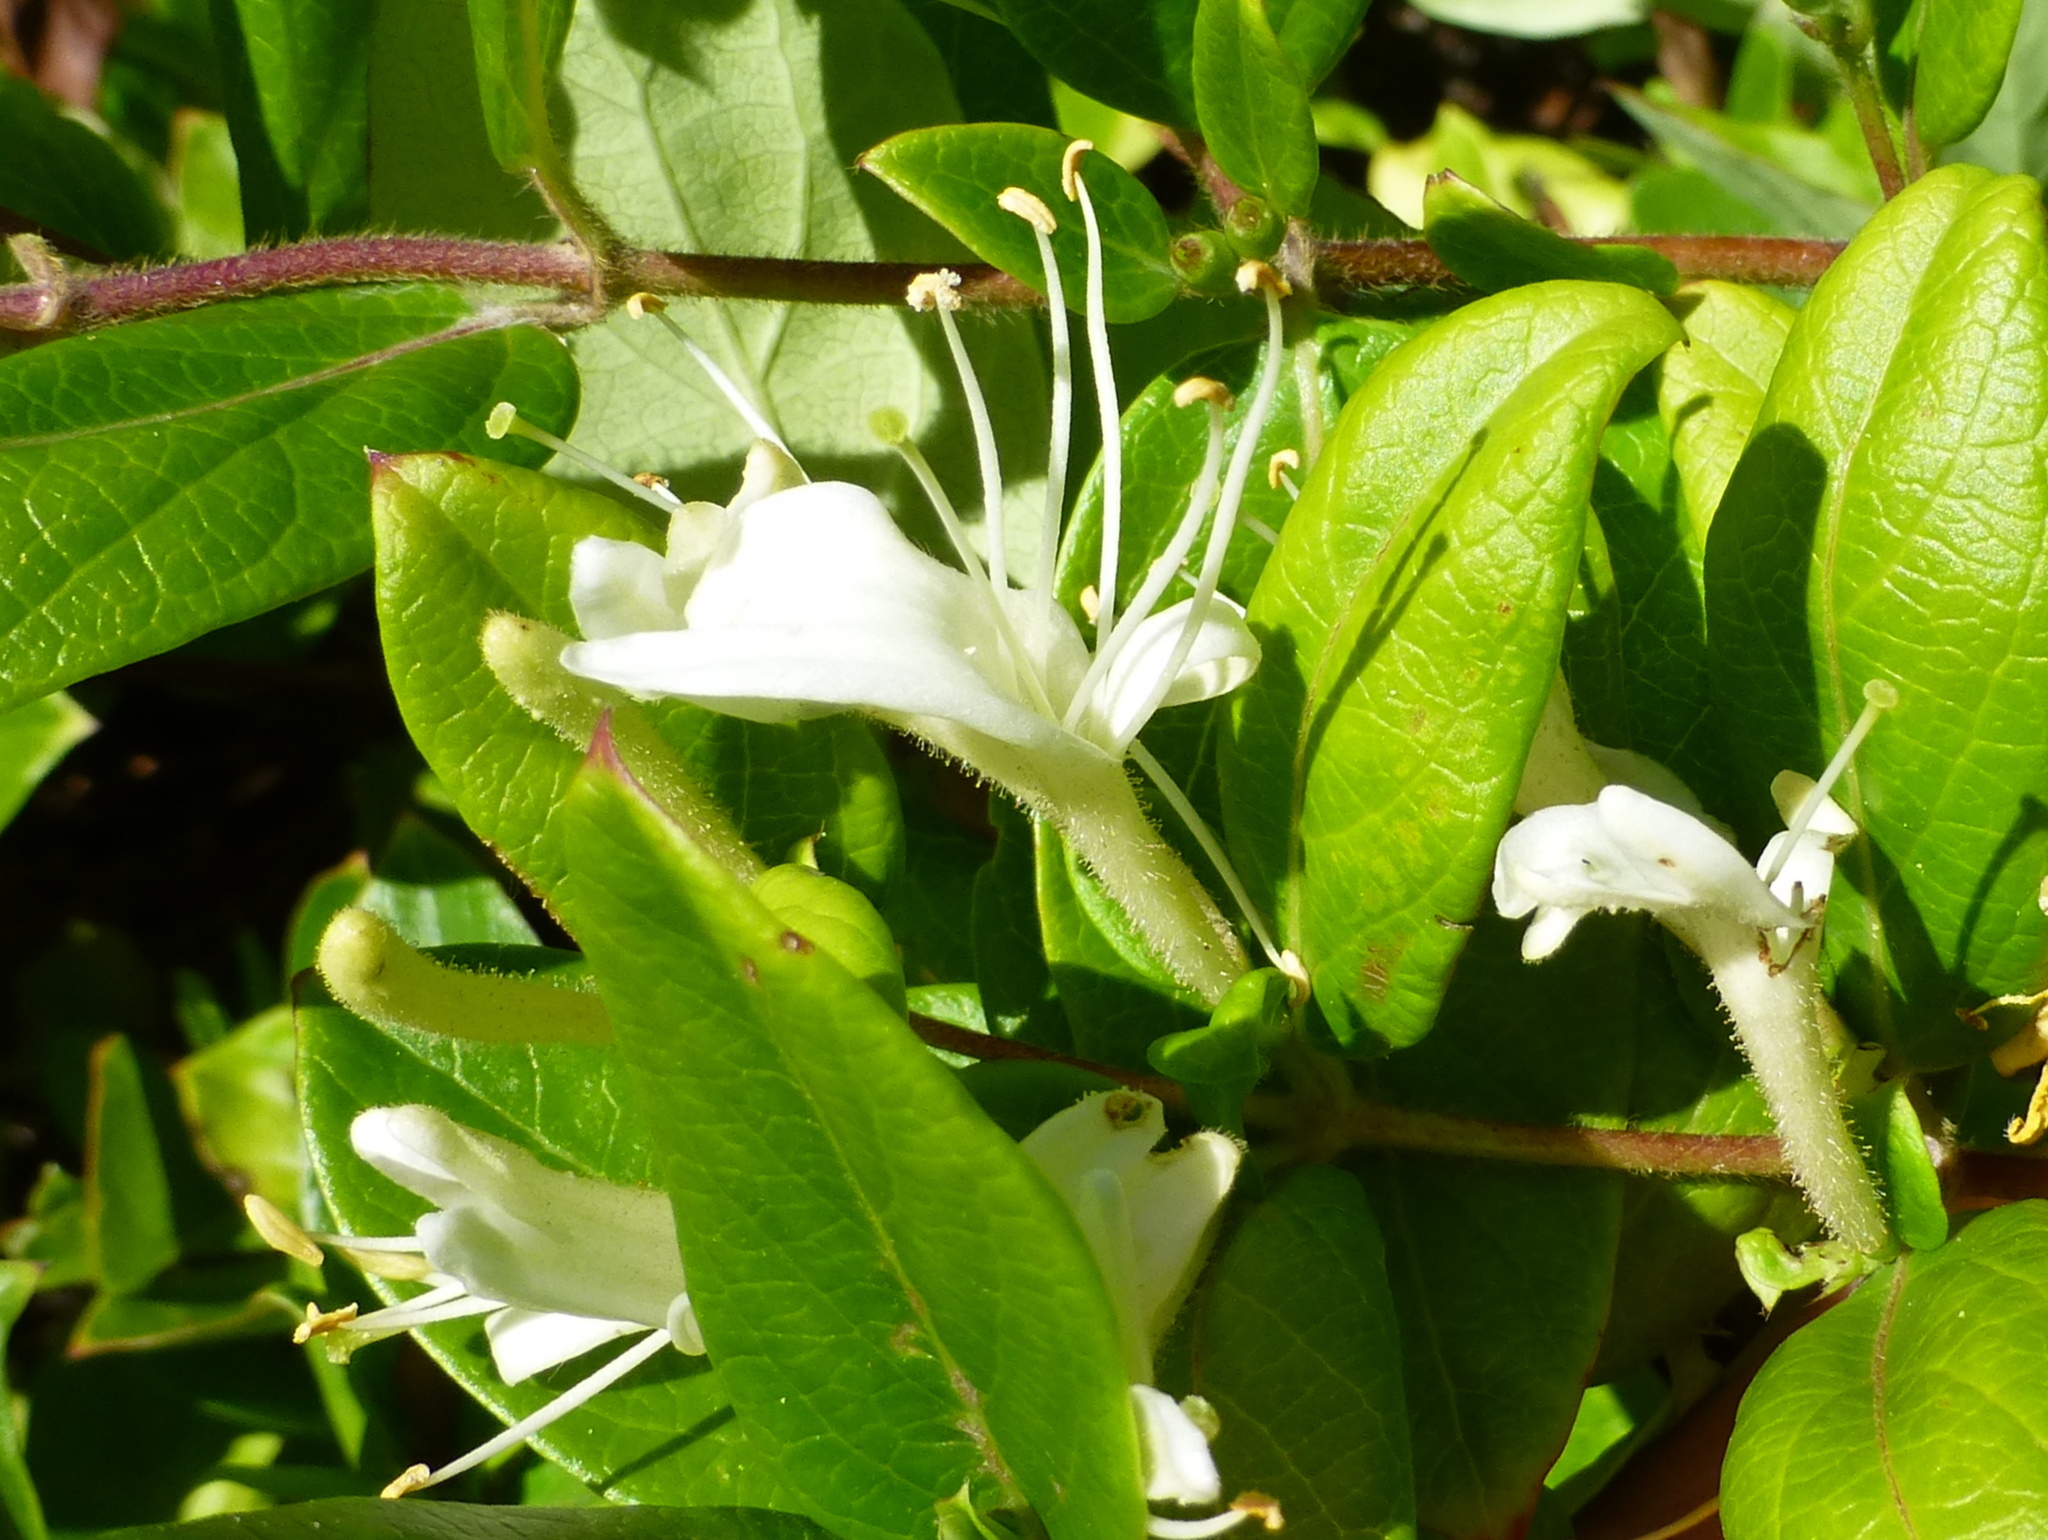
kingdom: Plantae
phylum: Tracheophyta
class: Magnoliopsida
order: Dipsacales
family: Caprifoliaceae
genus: Lonicera
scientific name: Lonicera japonica
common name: Japanese honeysuckle
